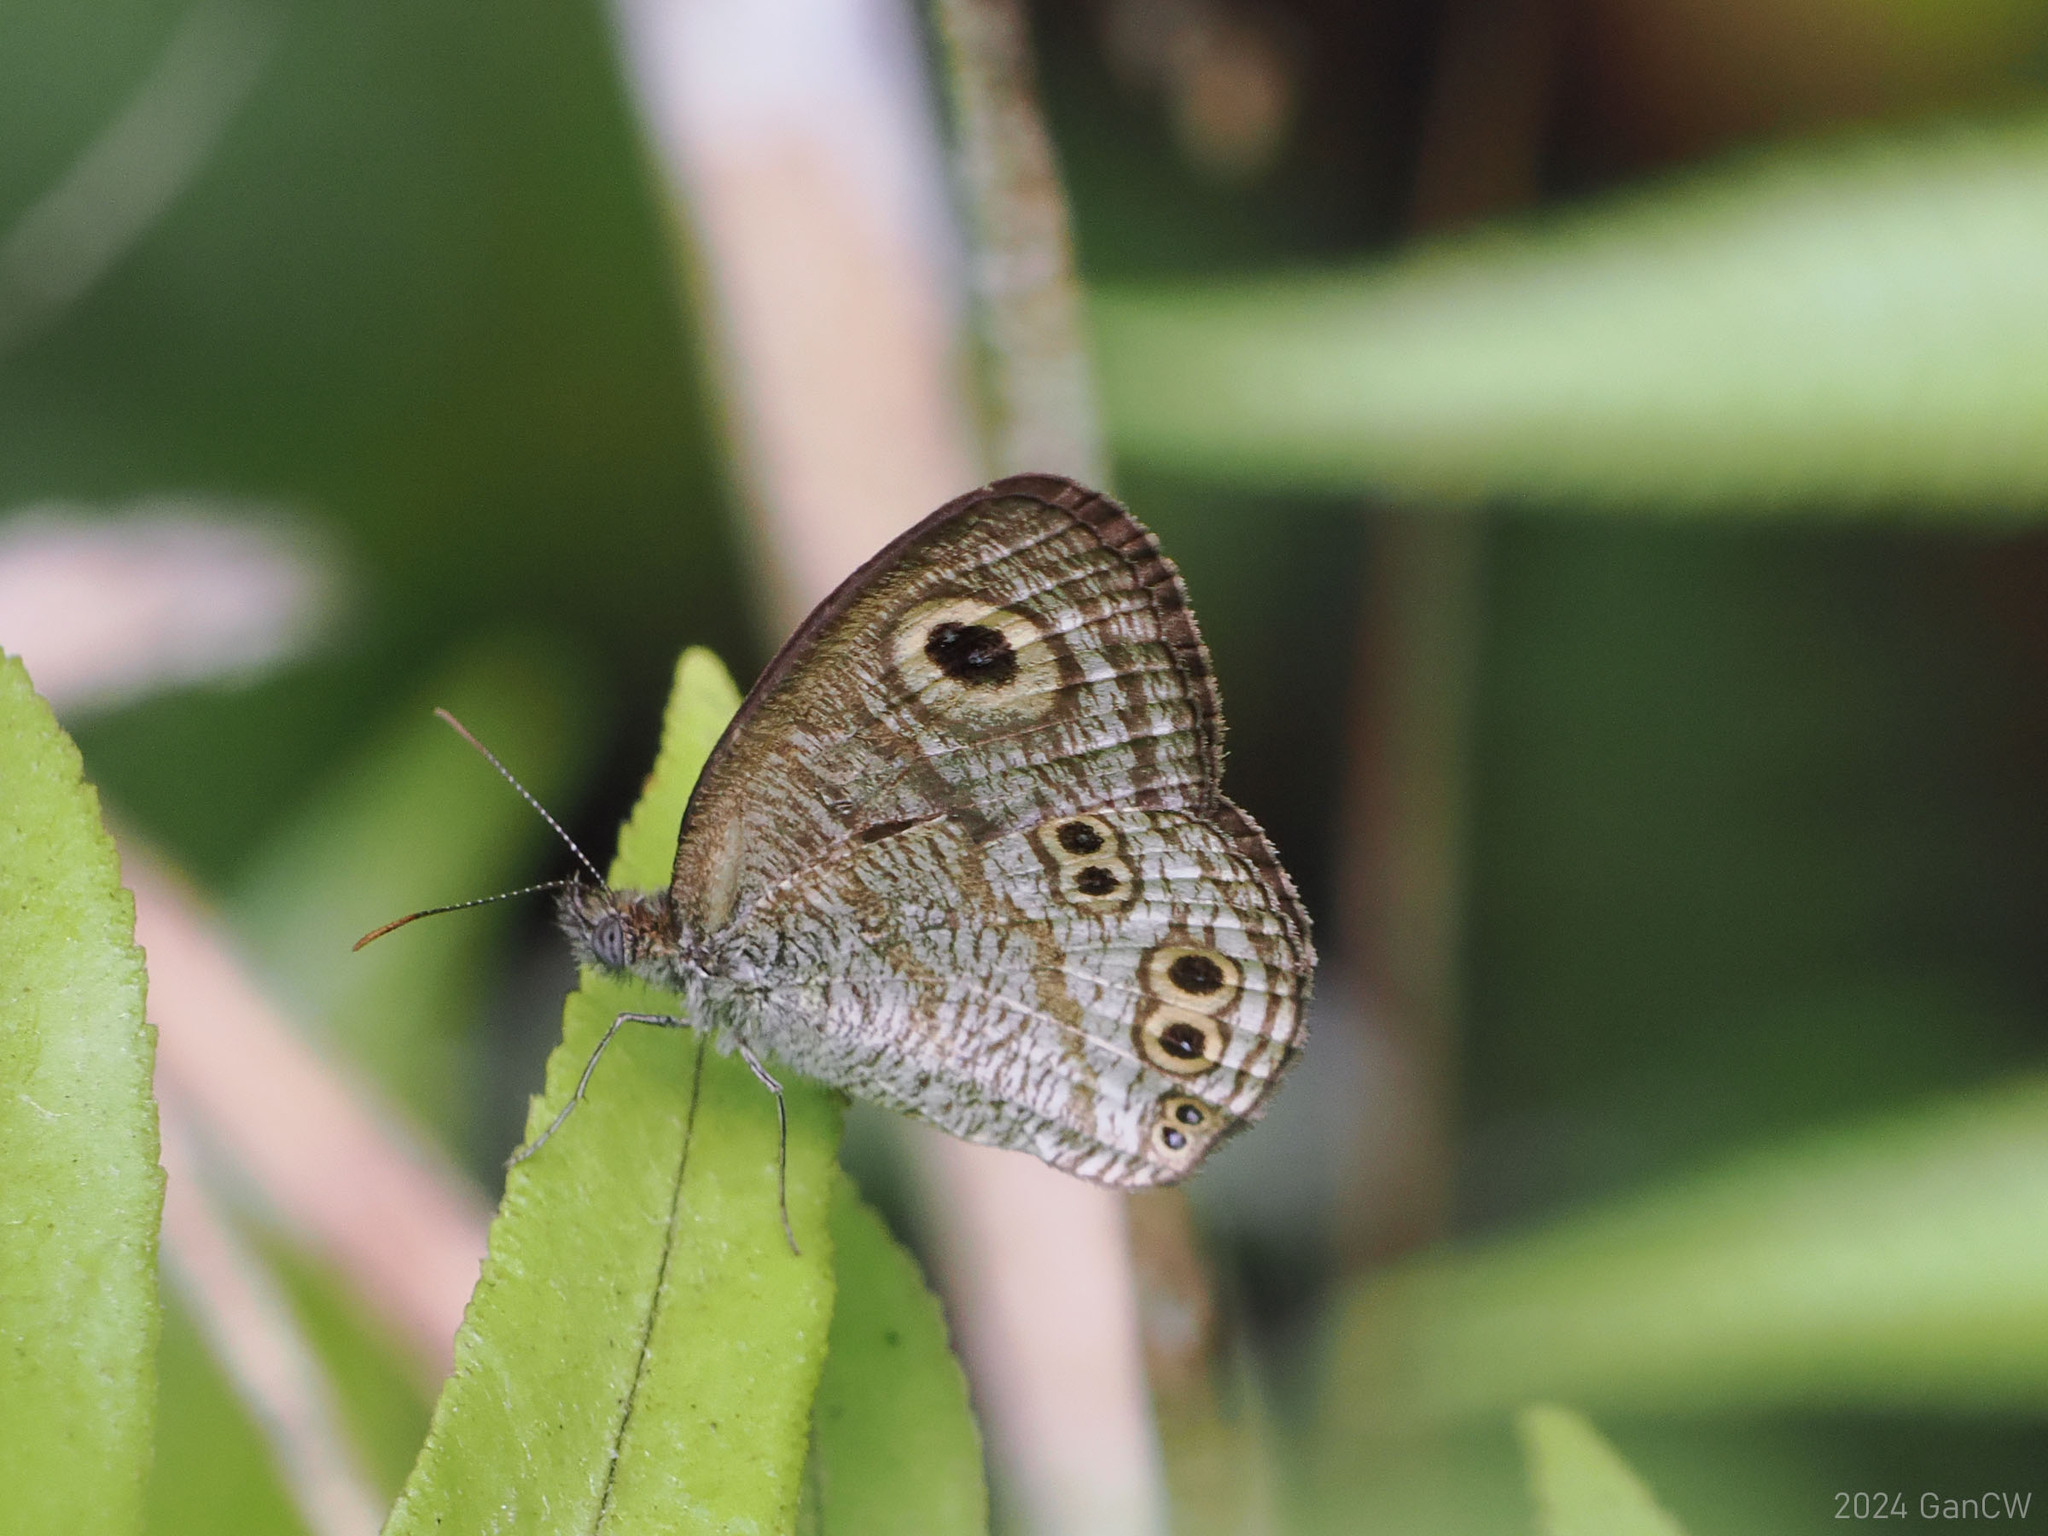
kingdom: Animalia
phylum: Arthropoda
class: Insecta
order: Lepidoptera
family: Nymphalidae
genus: Ypthima
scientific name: Ypthima stellera
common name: Philippine five-ring
